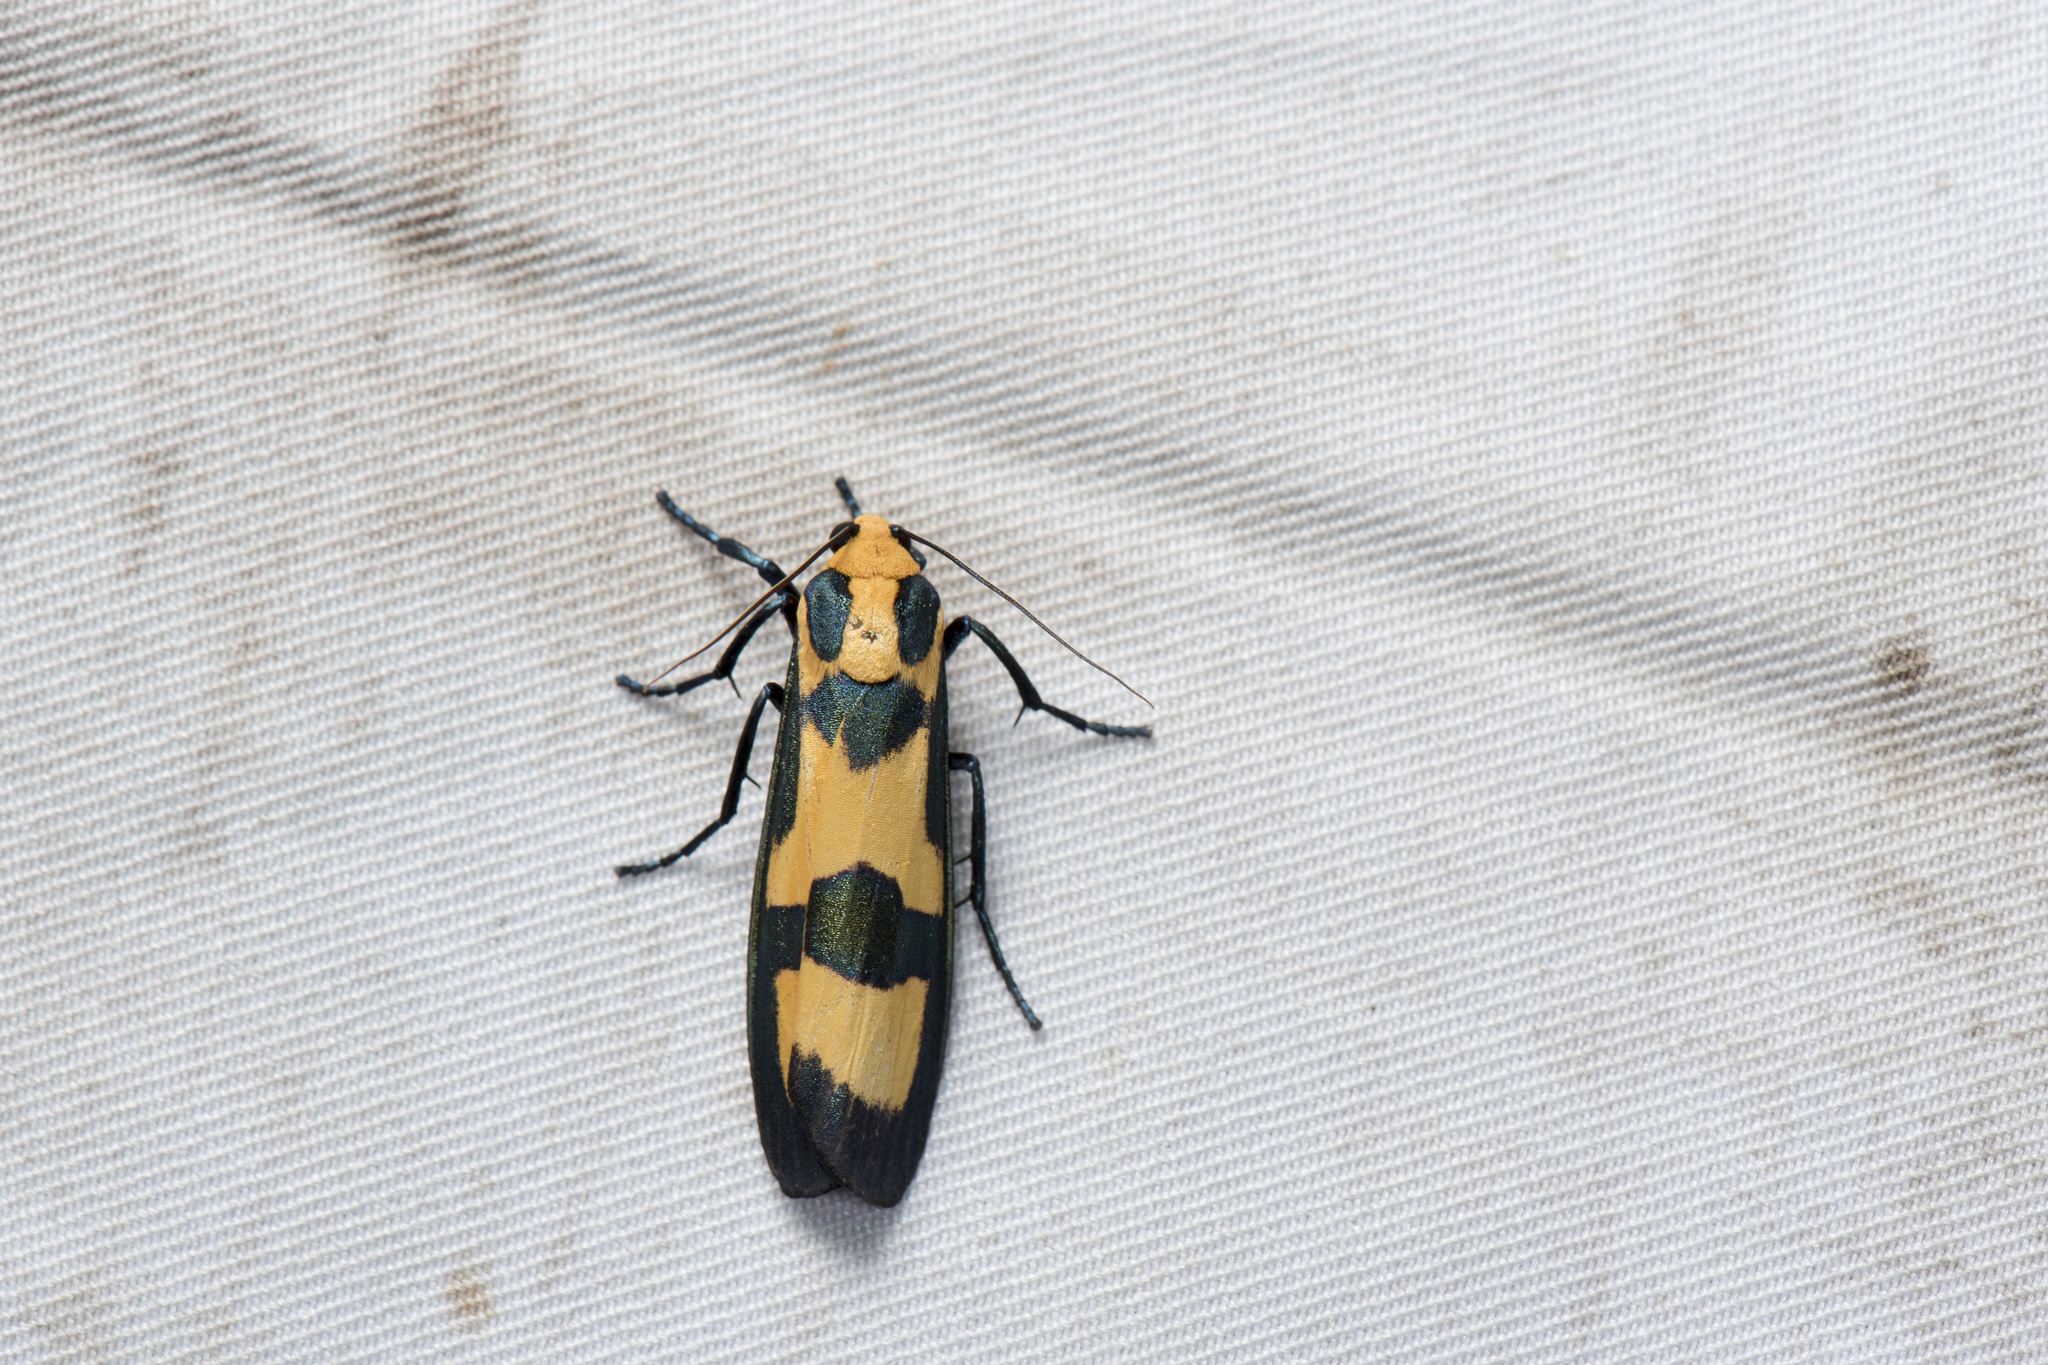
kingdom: Animalia
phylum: Arthropoda
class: Insecta
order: Lepidoptera
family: Erebidae
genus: Chrysaeglia
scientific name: Chrysaeglia magnifica
